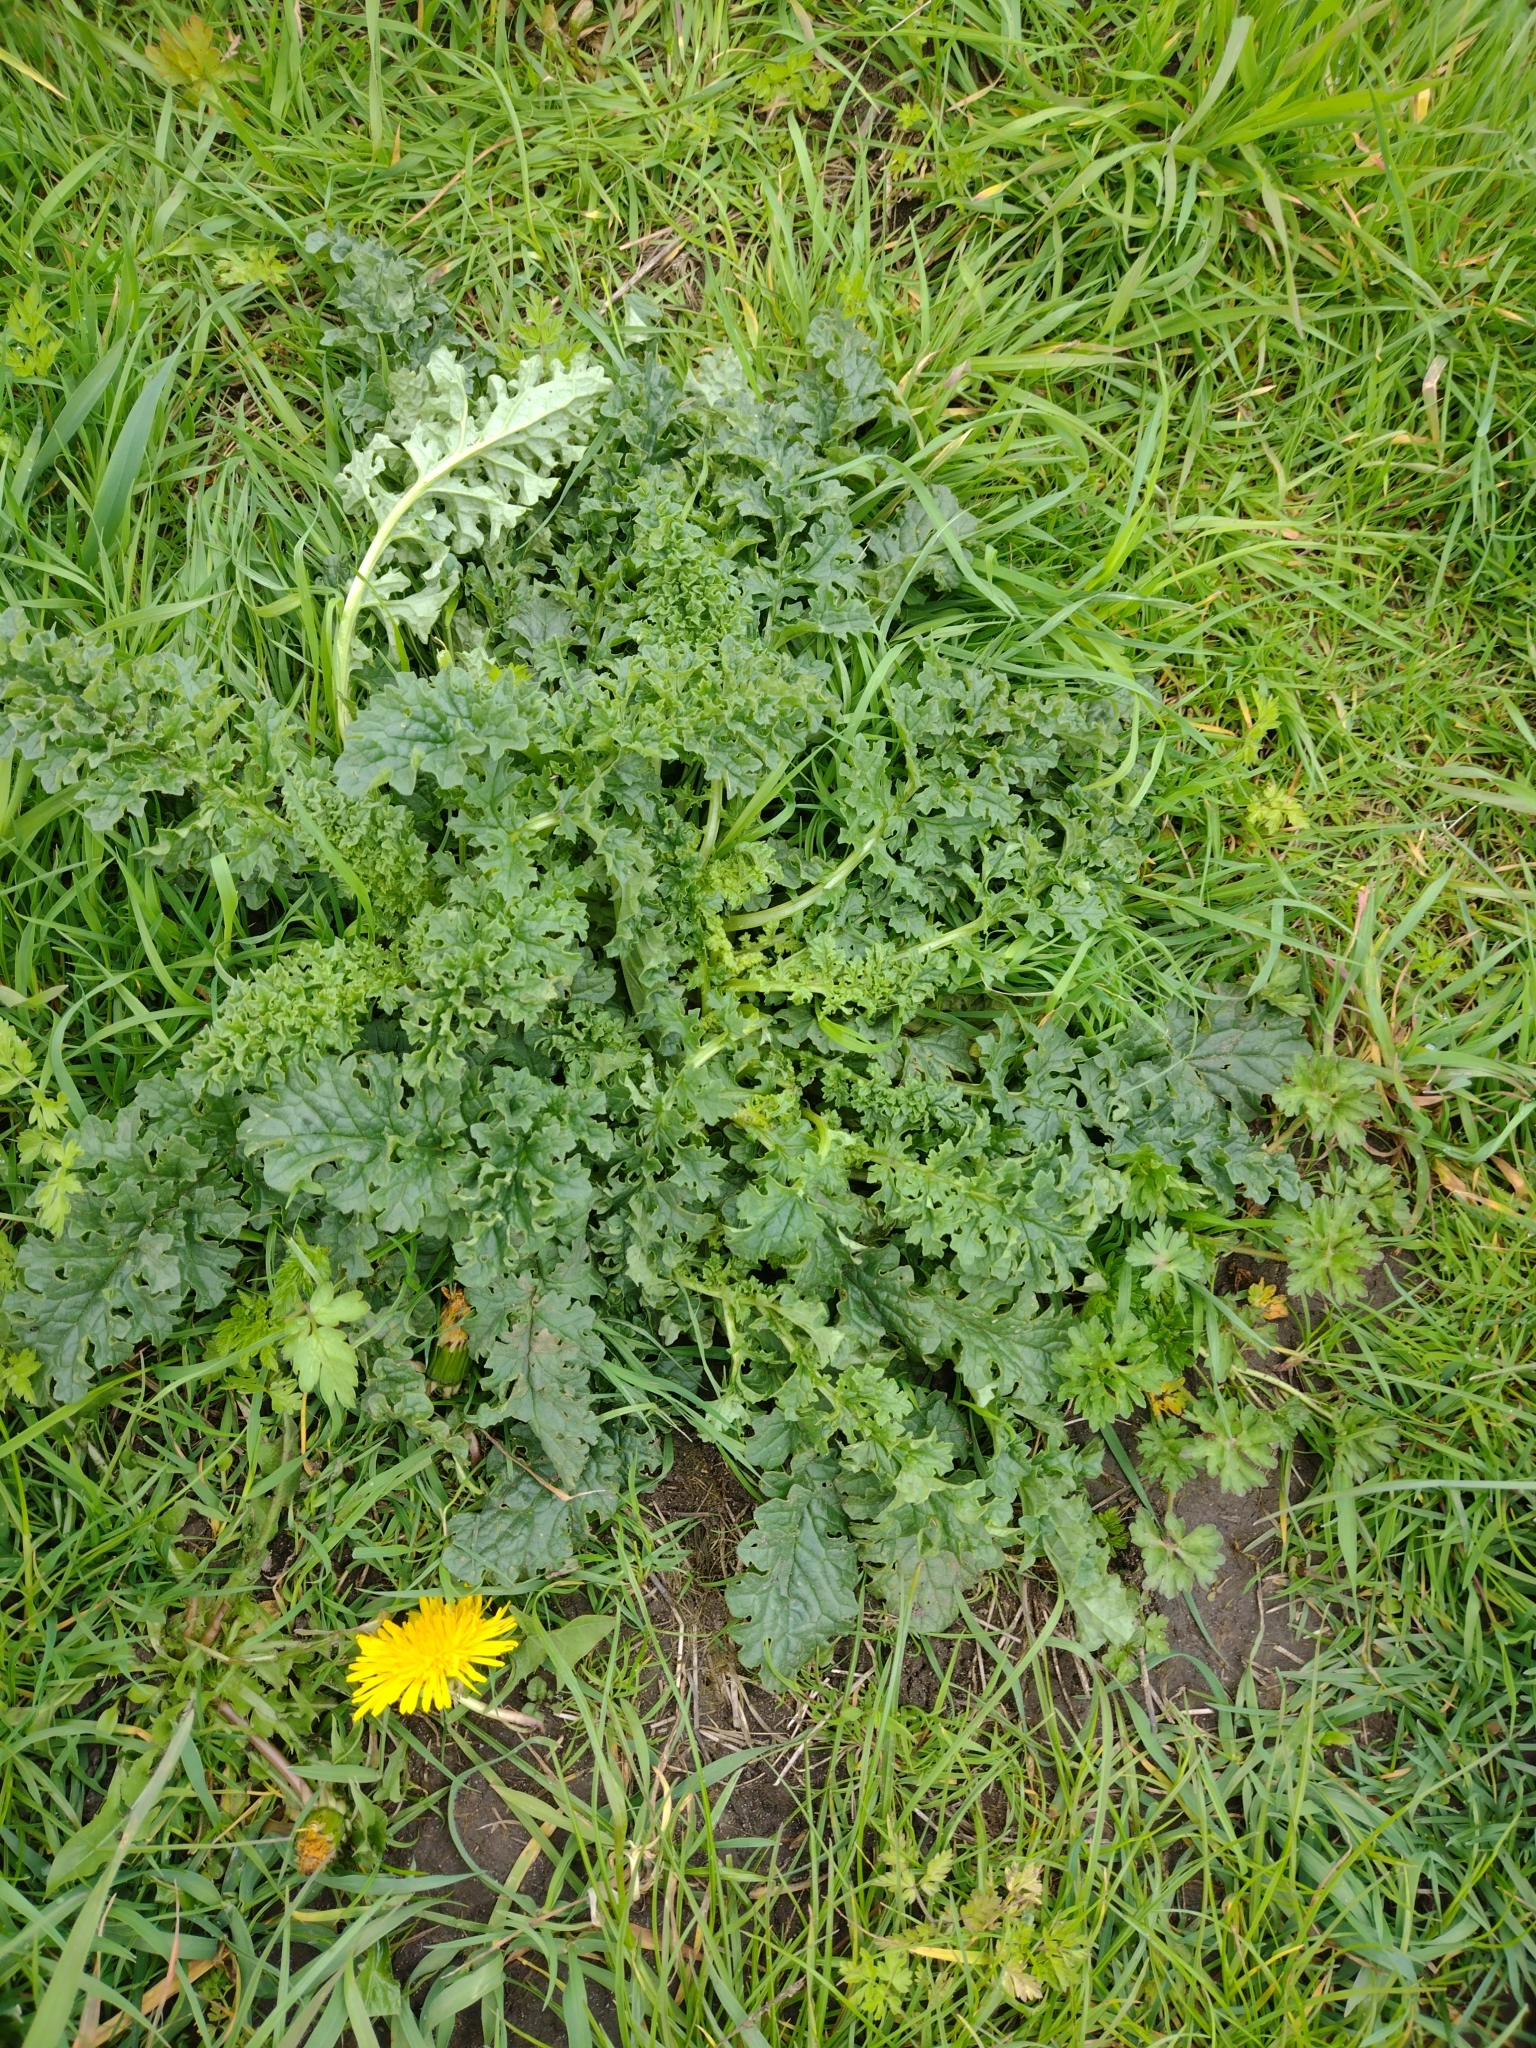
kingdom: Plantae
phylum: Tracheophyta
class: Magnoliopsida
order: Asterales
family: Asteraceae
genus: Jacobaea
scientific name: Jacobaea vulgaris
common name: Stinking willie
